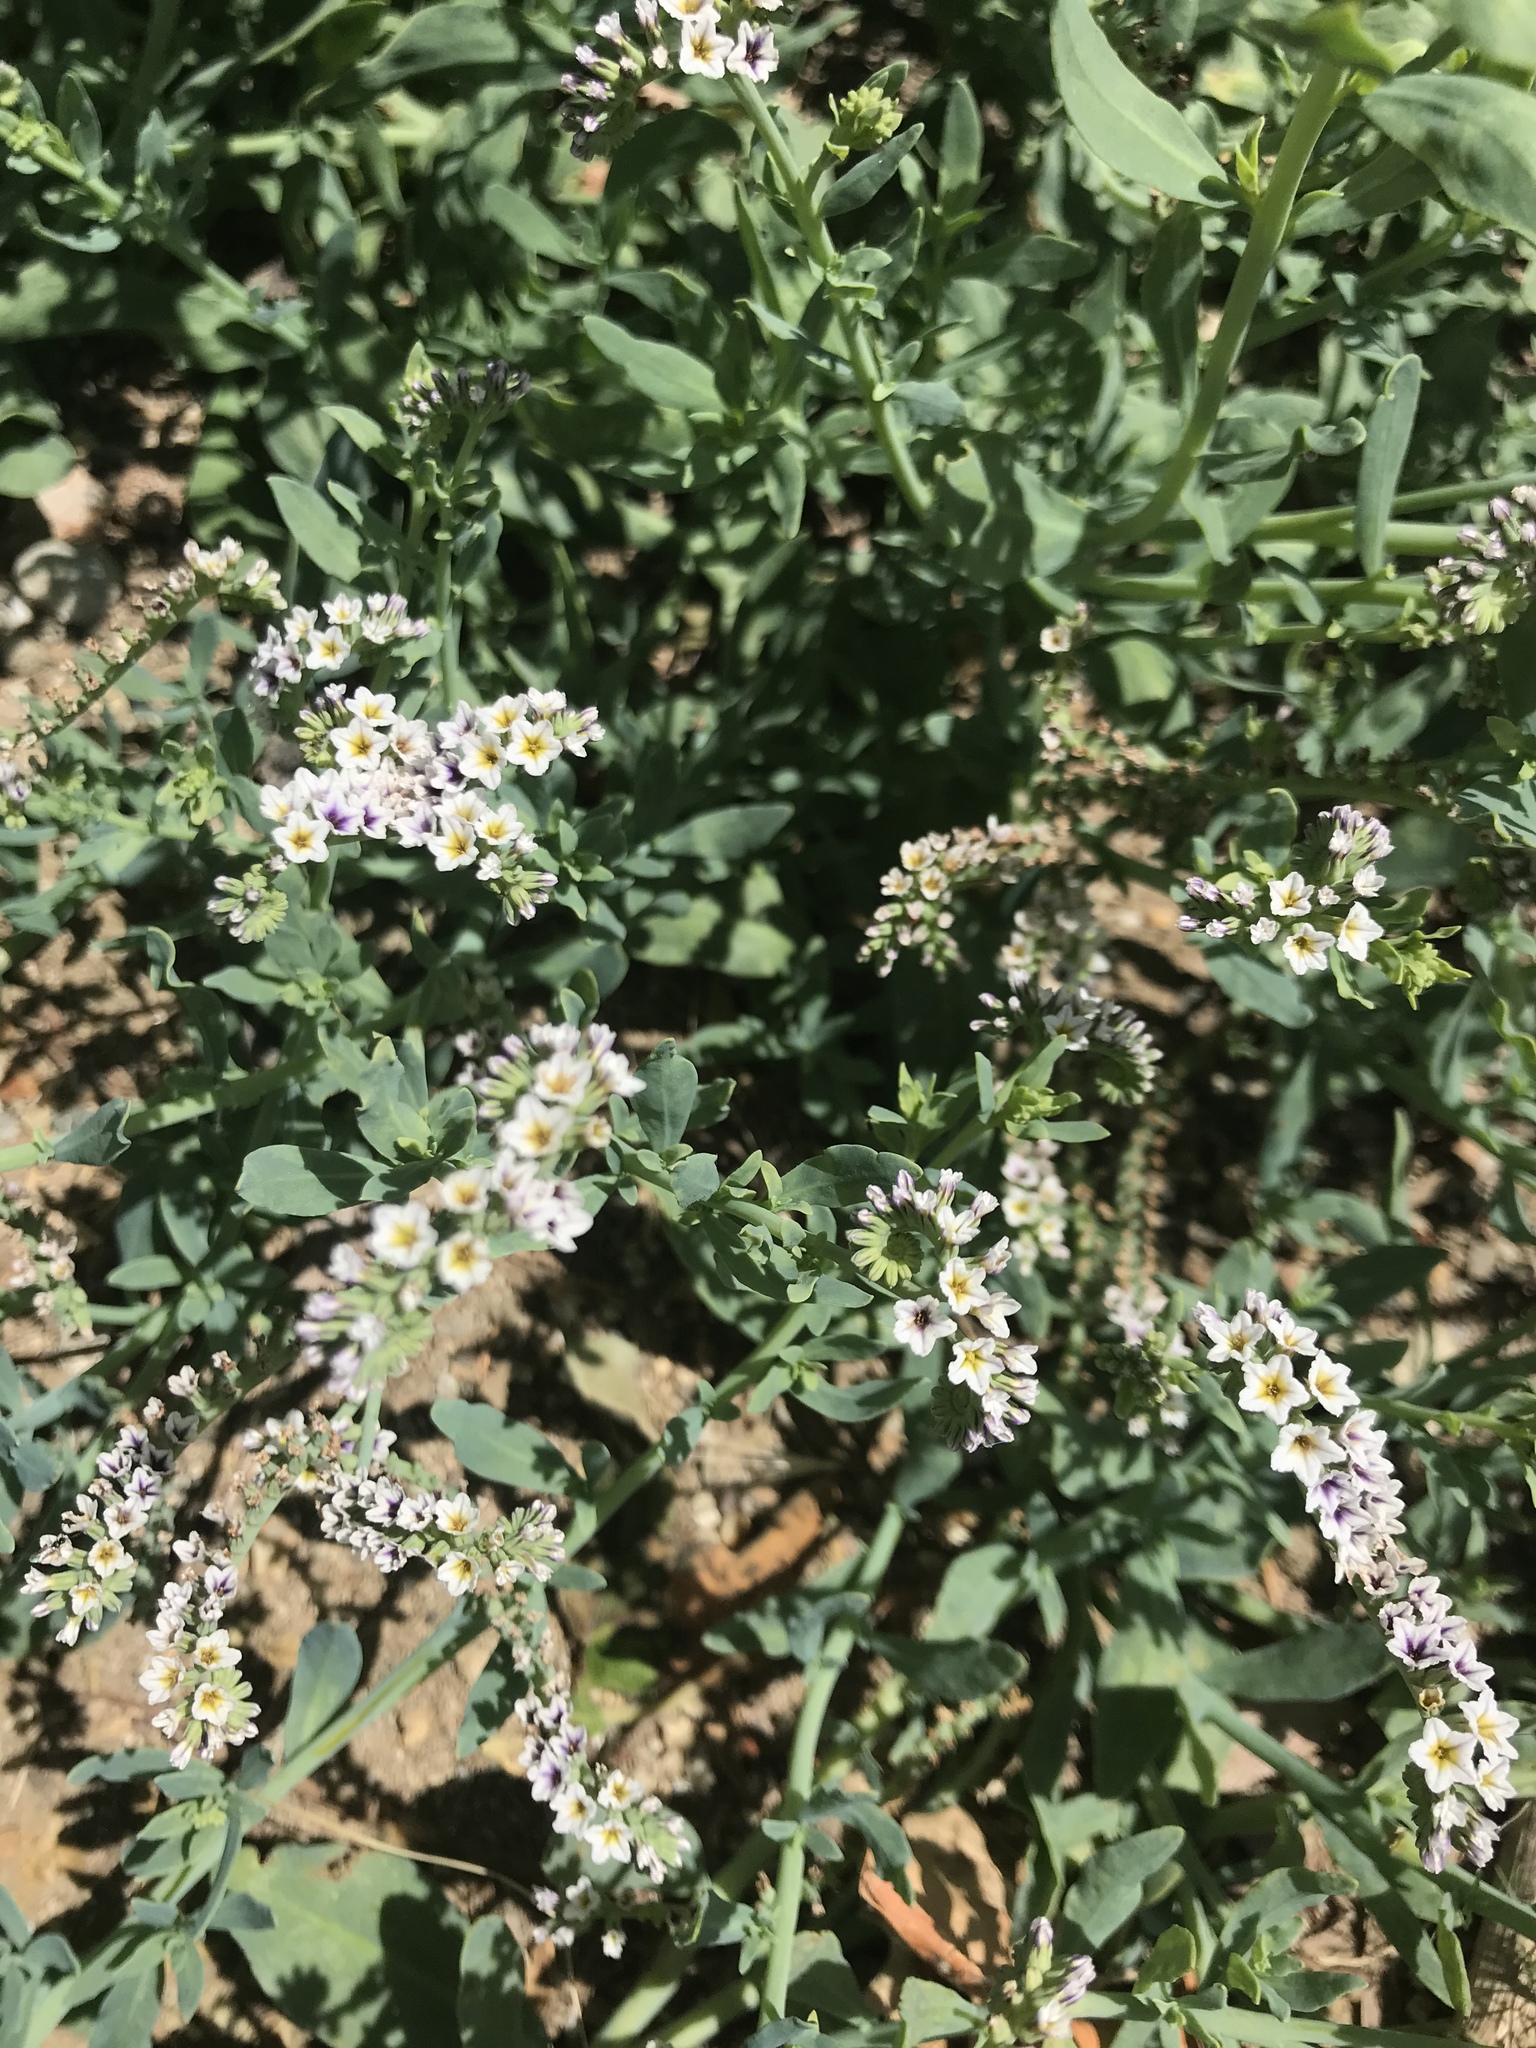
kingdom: Plantae
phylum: Tracheophyta
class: Magnoliopsida
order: Boraginales
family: Heliotropiaceae
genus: Heliotropium
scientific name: Heliotropium curassavicum
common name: Seaside heliotrope
